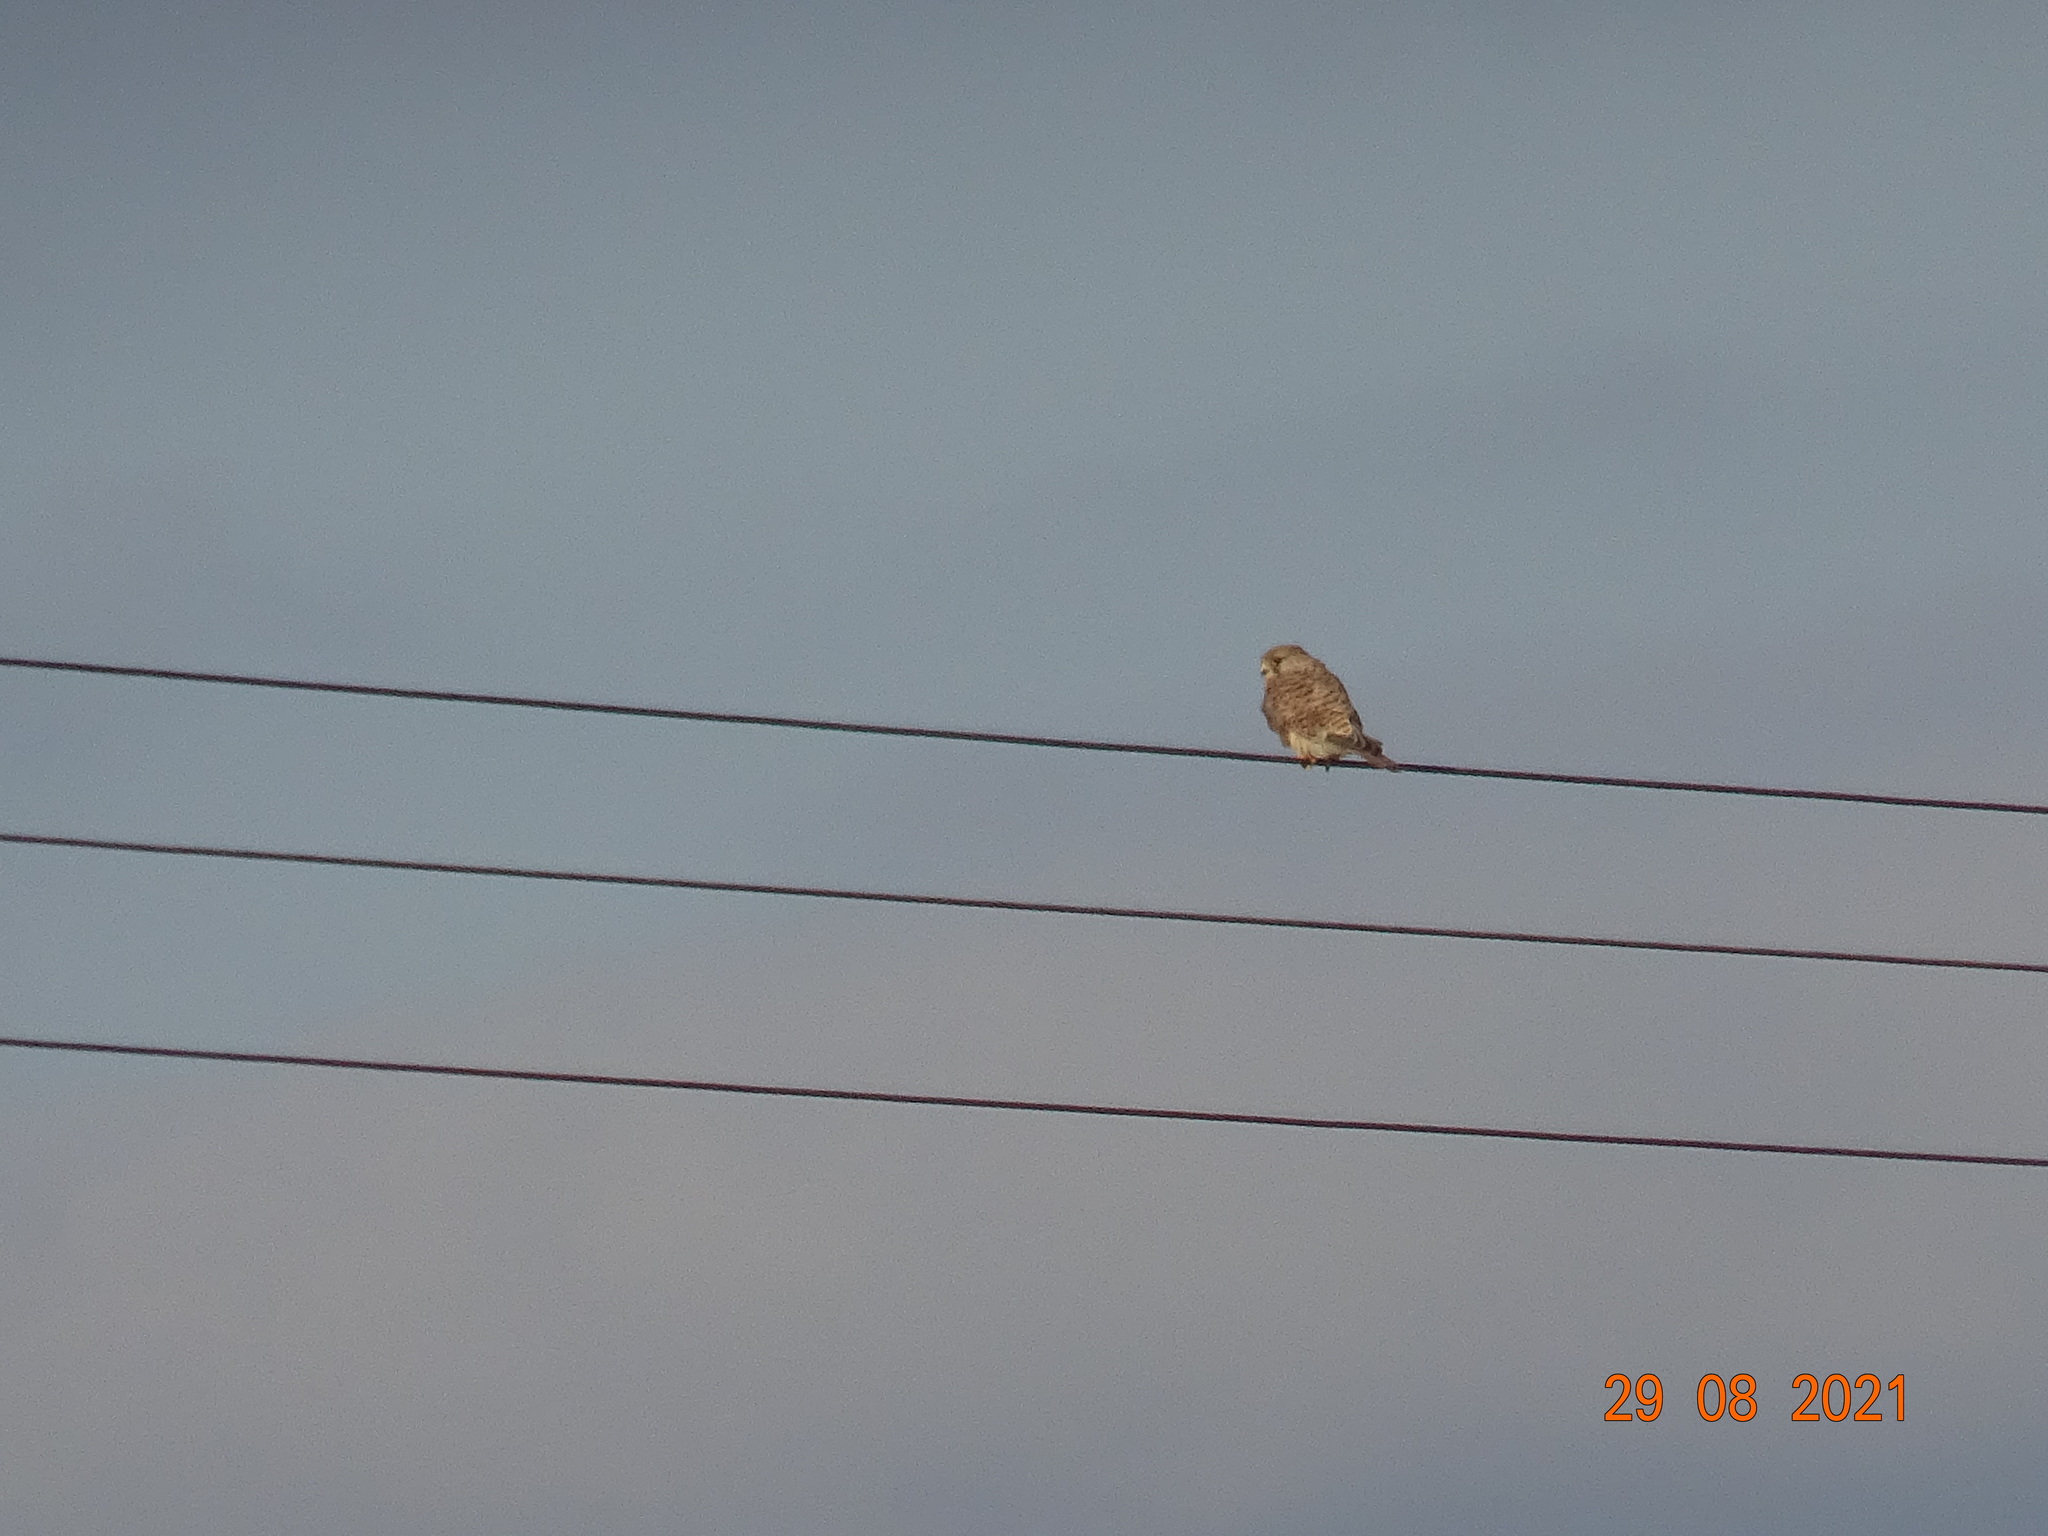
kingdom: Animalia
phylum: Chordata
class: Aves
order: Falconiformes
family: Falconidae
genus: Falco
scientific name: Falco tinnunculus
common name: Common kestrel
